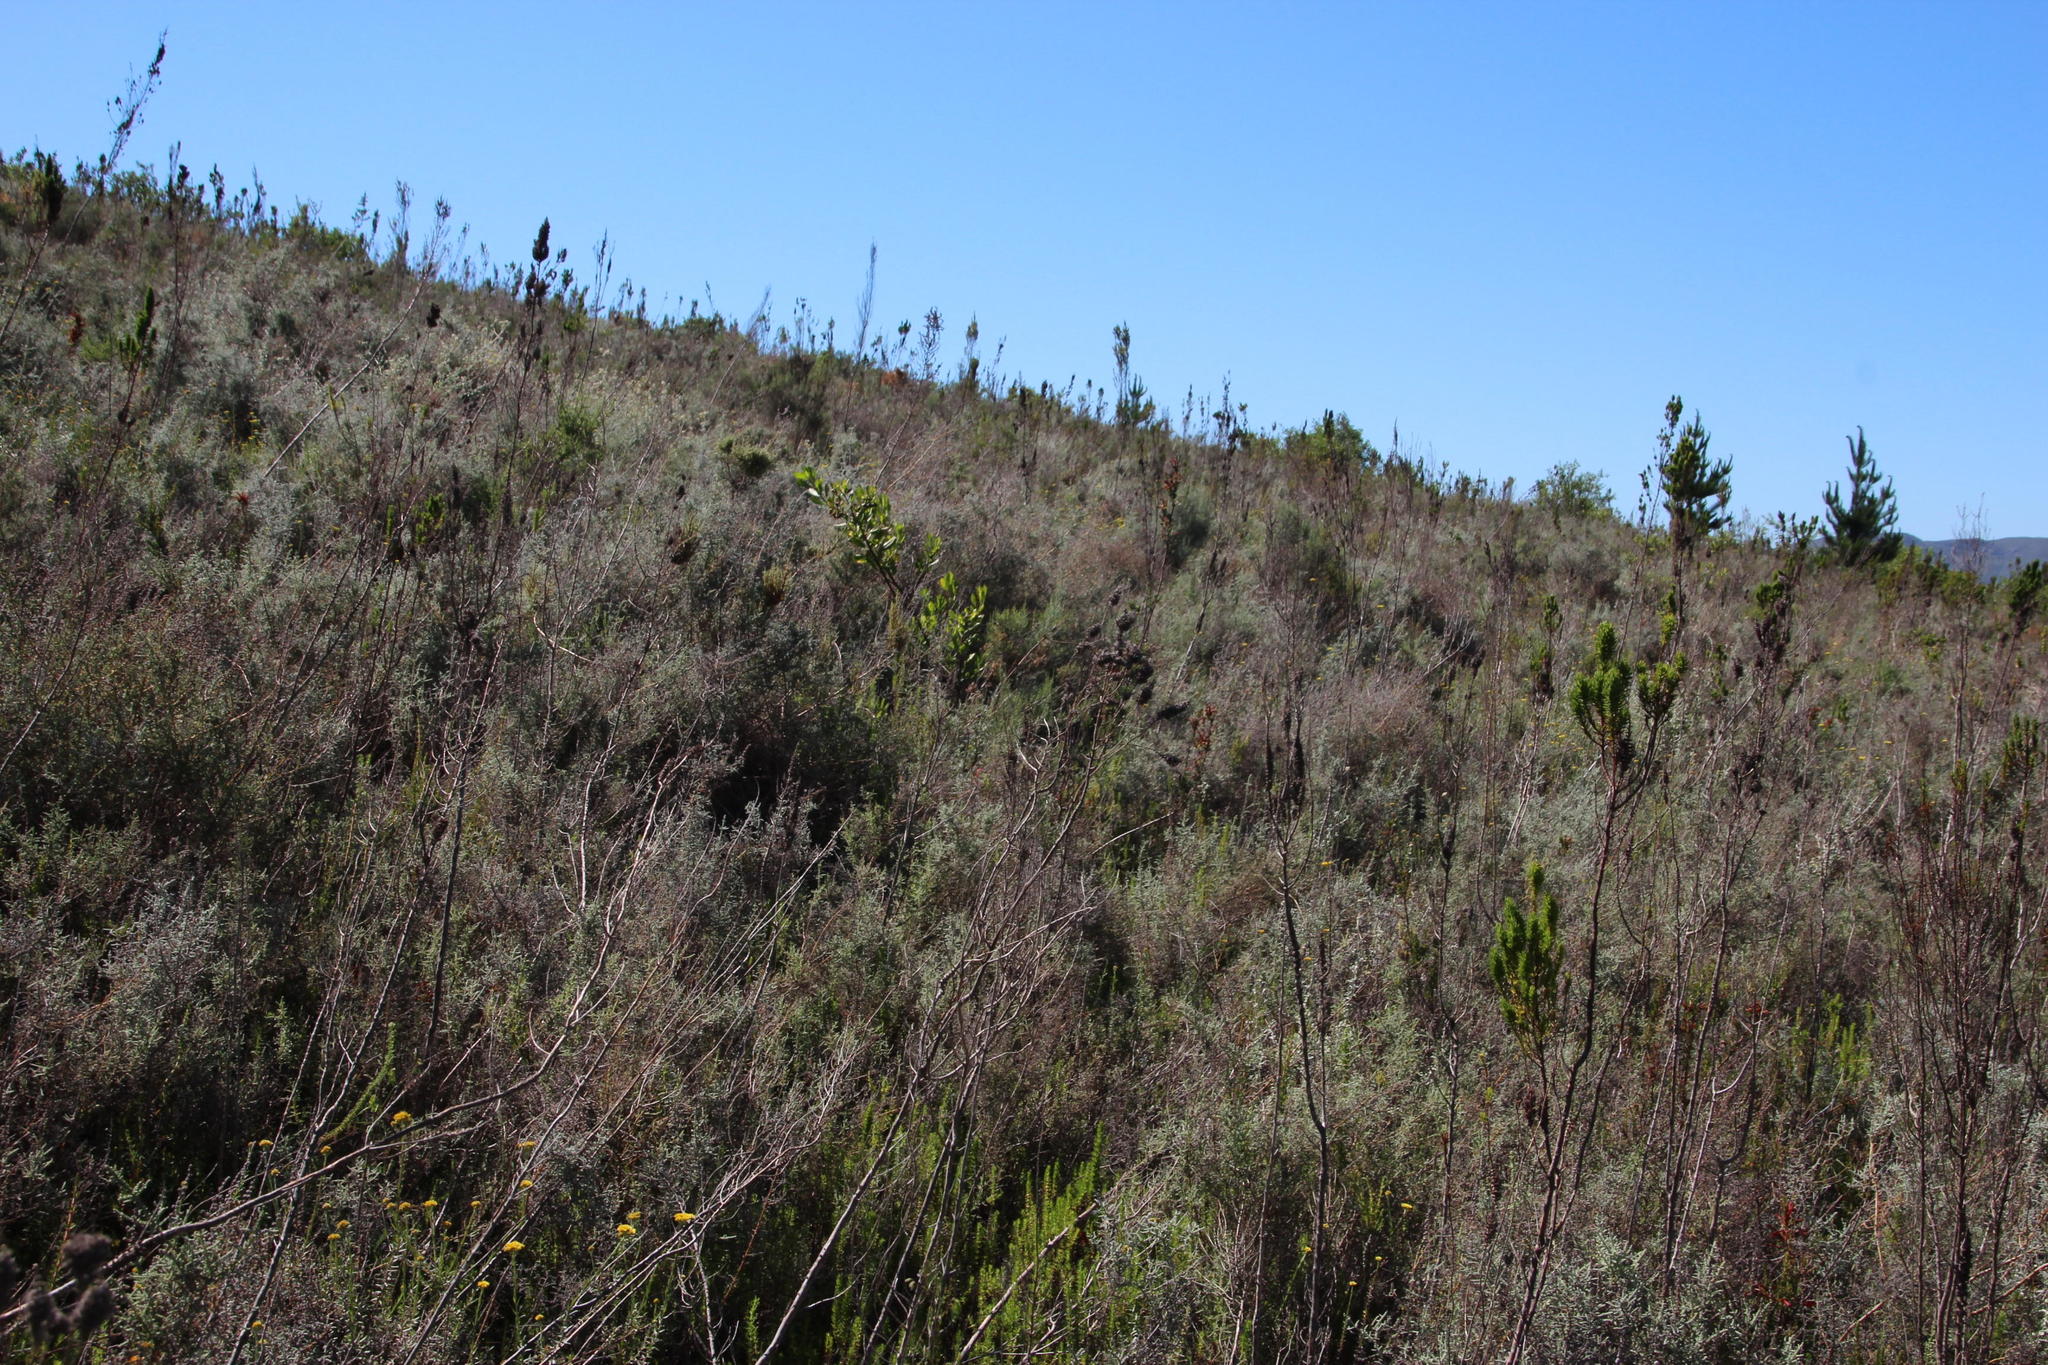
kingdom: Plantae
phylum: Tracheophyta
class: Magnoliopsida
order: Asterales
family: Asteraceae
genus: Dicerothamnus
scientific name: Dicerothamnus rhinocerotis
